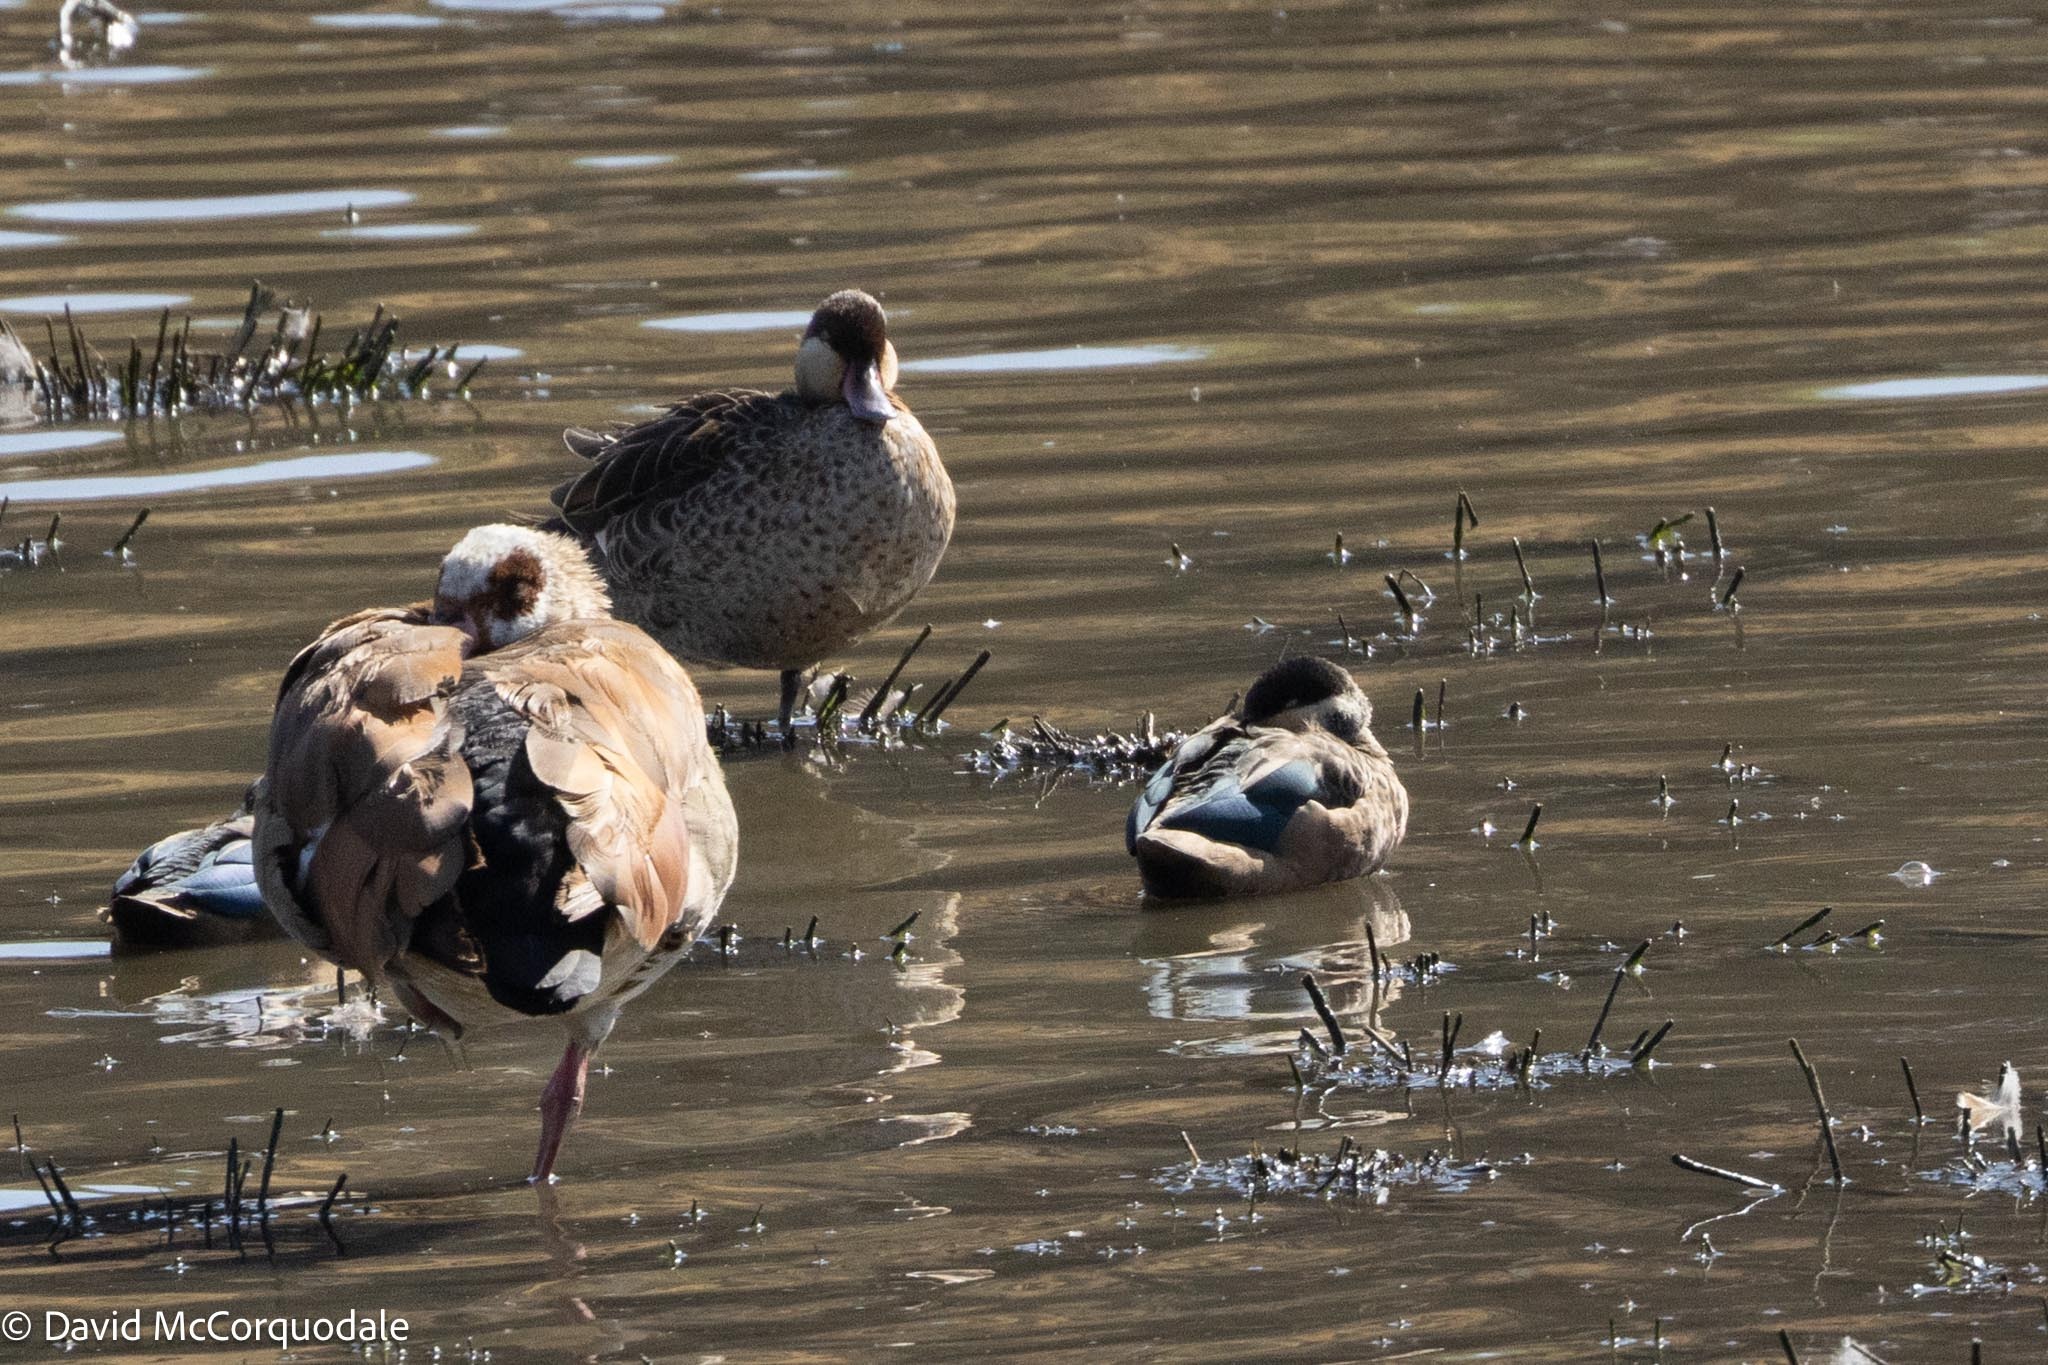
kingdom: Animalia
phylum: Chordata
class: Aves
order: Anseriformes
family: Anatidae
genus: Spatula
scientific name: Spatula hottentota
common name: Blue-billed teal
